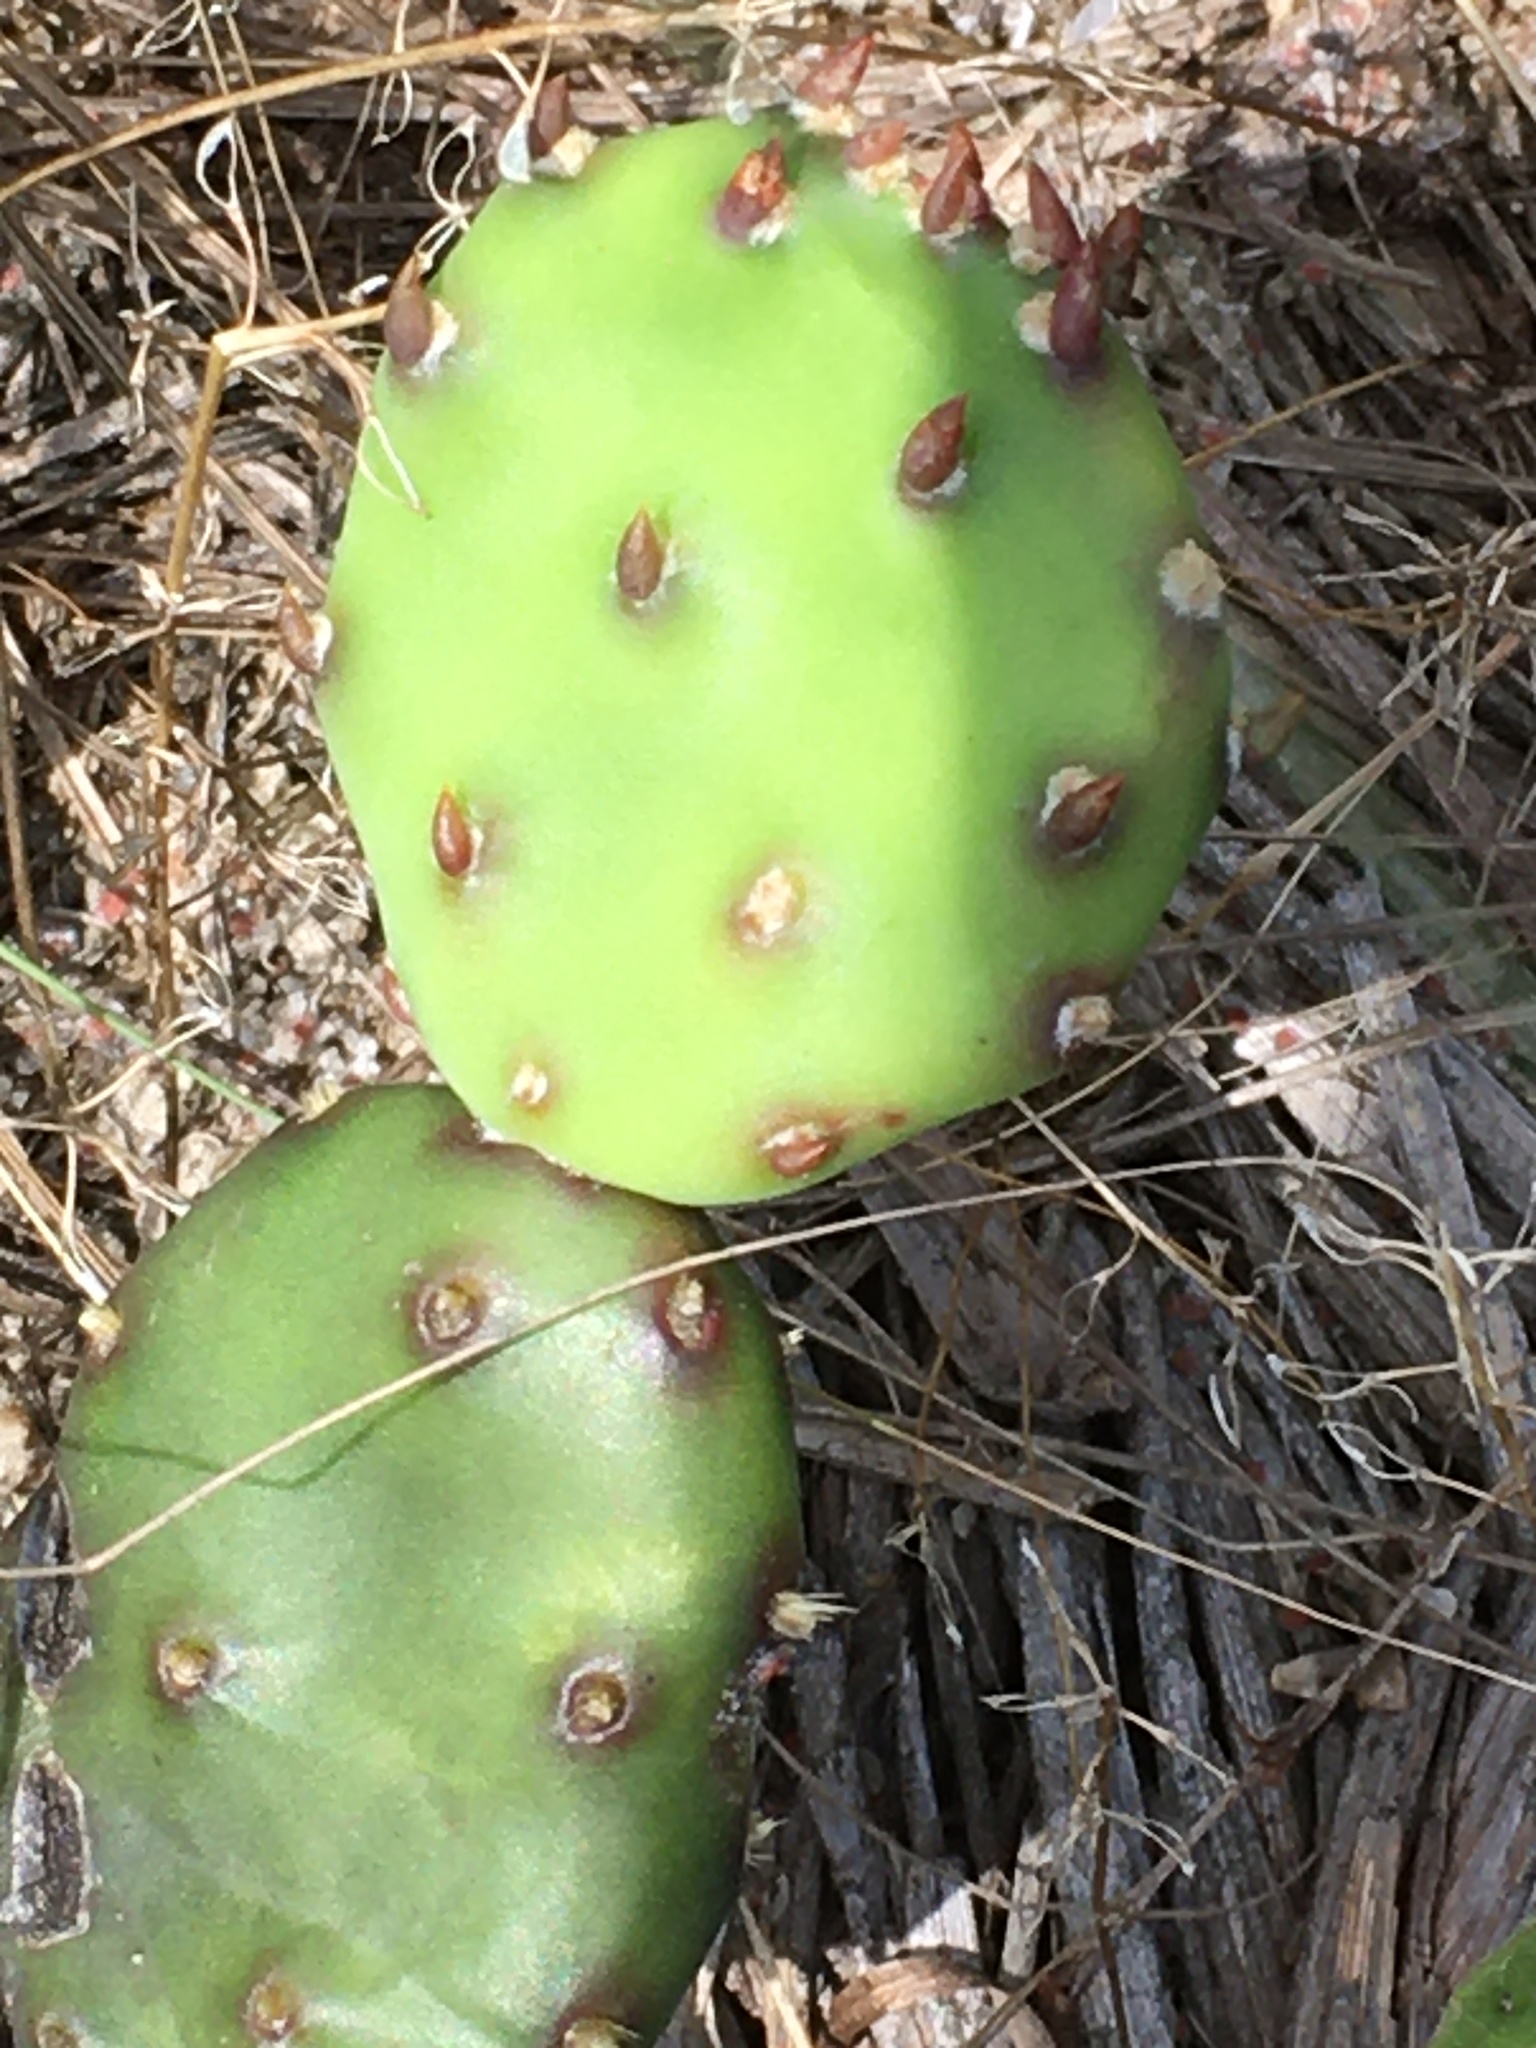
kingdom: Plantae
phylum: Tracheophyta
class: Magnoliopsida
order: Caryophyllales
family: Cactaceae
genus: Opuntia
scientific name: Opuntia mesacantha
